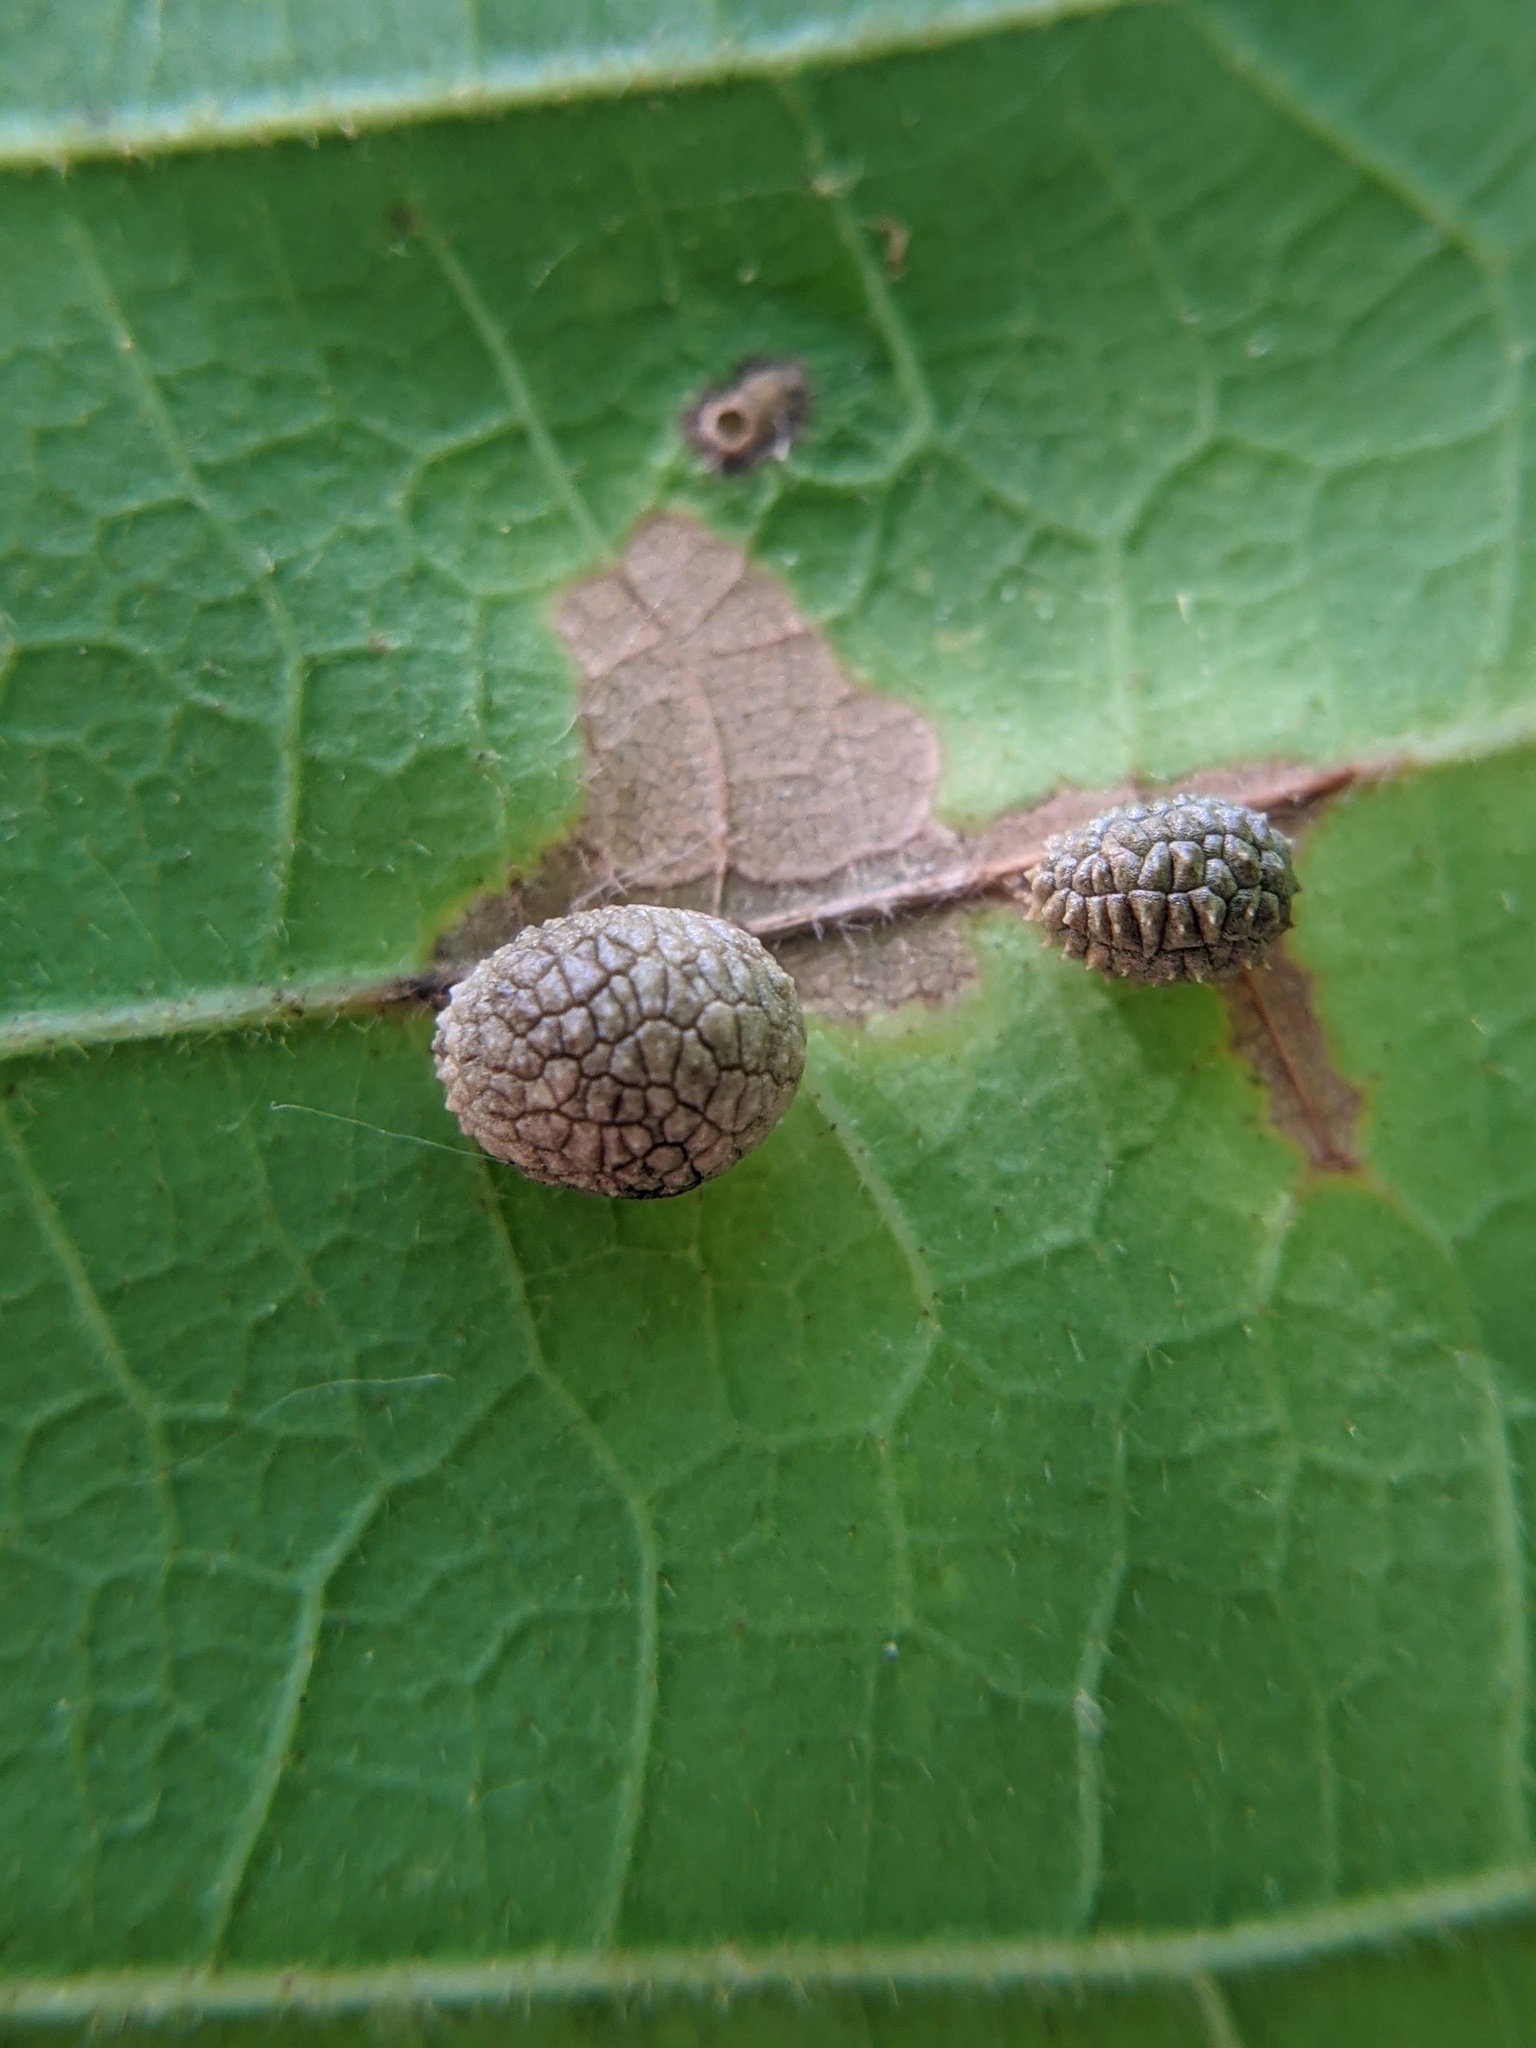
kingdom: Animalia
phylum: Arthropoda
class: Insecta
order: Hymenoptera
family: Cynipidae
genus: Acraspis
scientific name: Acraspis quercushirta
